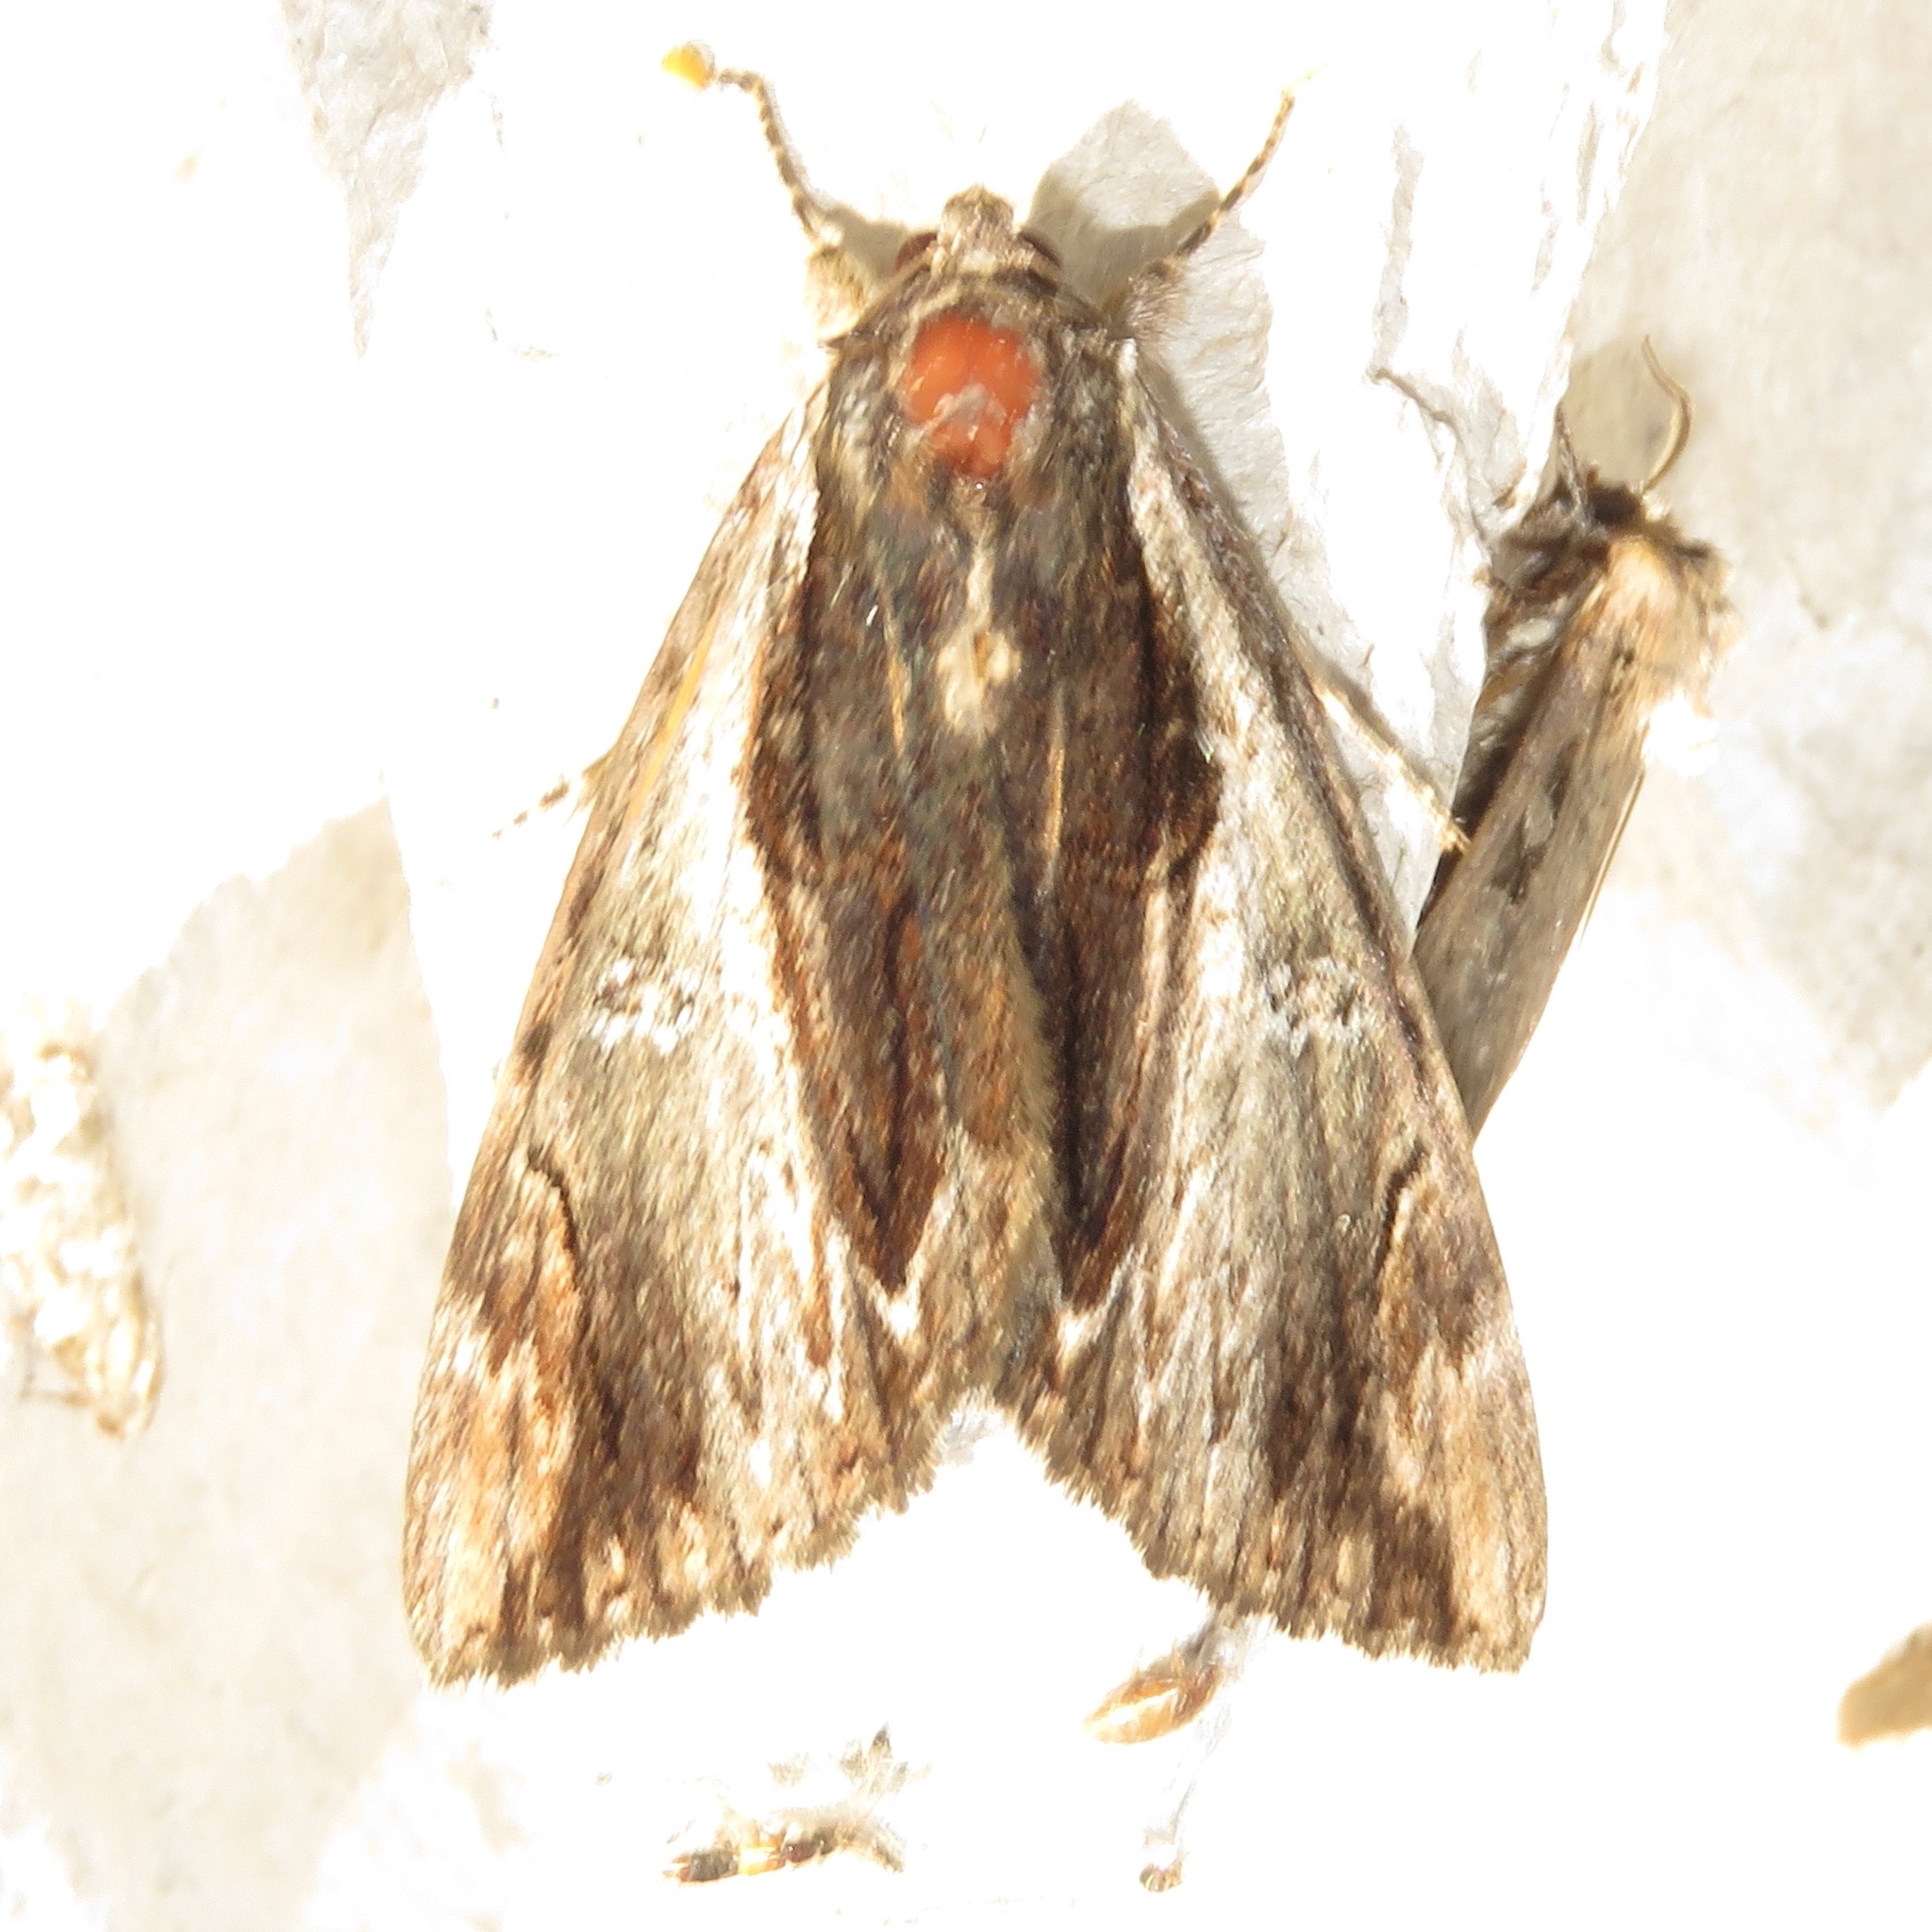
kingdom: Animalia
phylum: Arthropoda
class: Insecta
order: Lepidoptera
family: Erebidae
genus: Catocala
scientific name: Catocala ultronia
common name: Ultronia underwing
